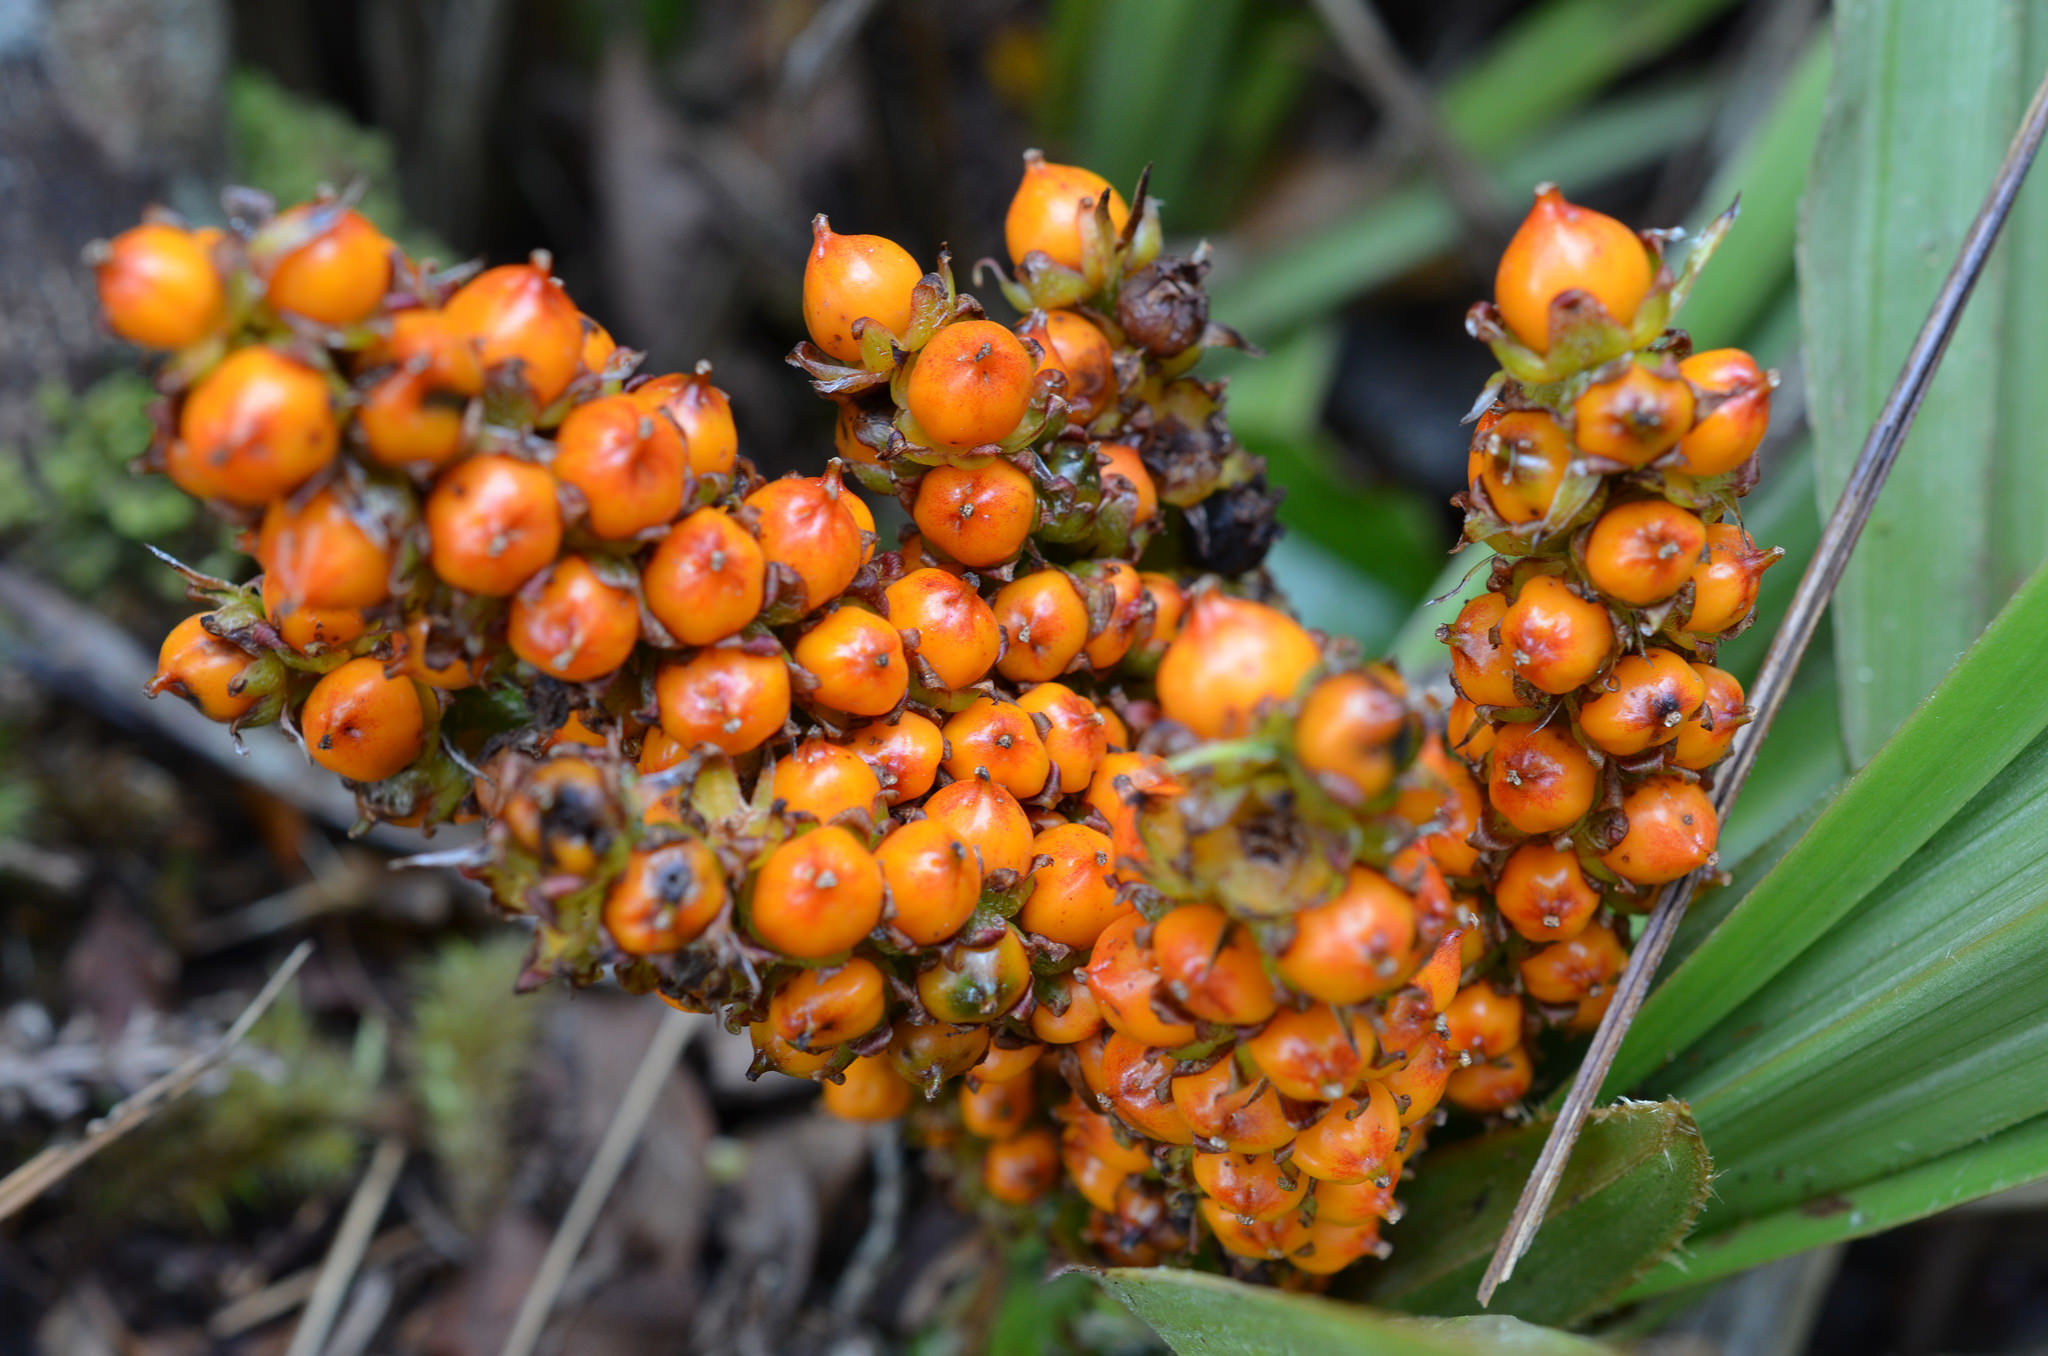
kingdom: Plantae
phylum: Tracheophyta
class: Liliopsida
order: Asparagales
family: Asteliaceae
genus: Astelia
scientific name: Astelia fragrans
